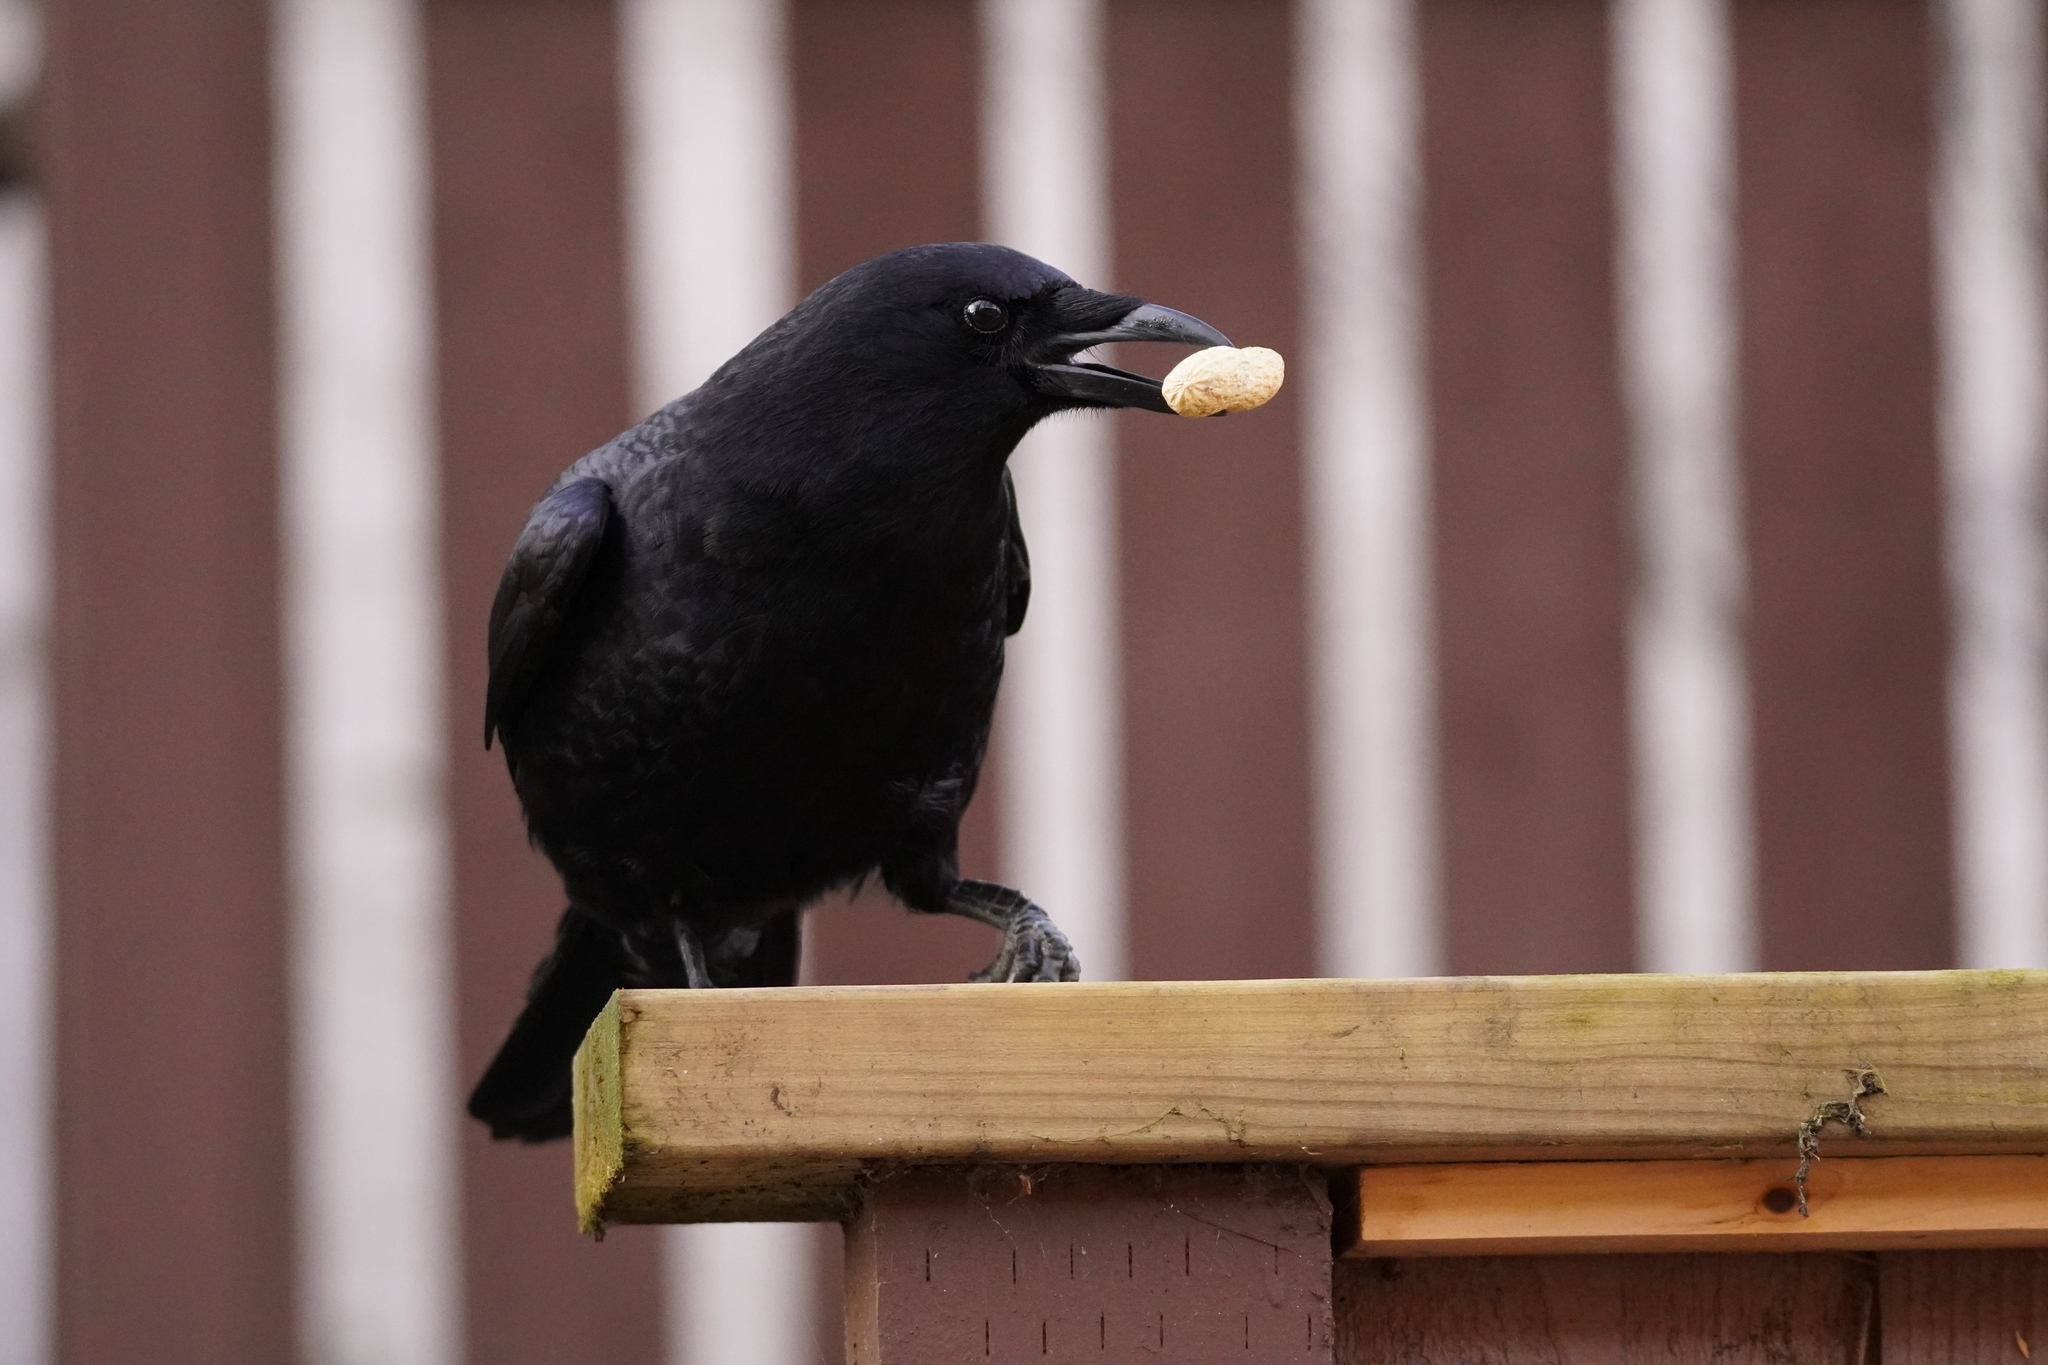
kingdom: Animalia
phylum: Chordata
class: Aves
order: Passeriformes
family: Corvidae
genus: Corvus
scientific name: Corvus brachyrhynchos
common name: American crow
